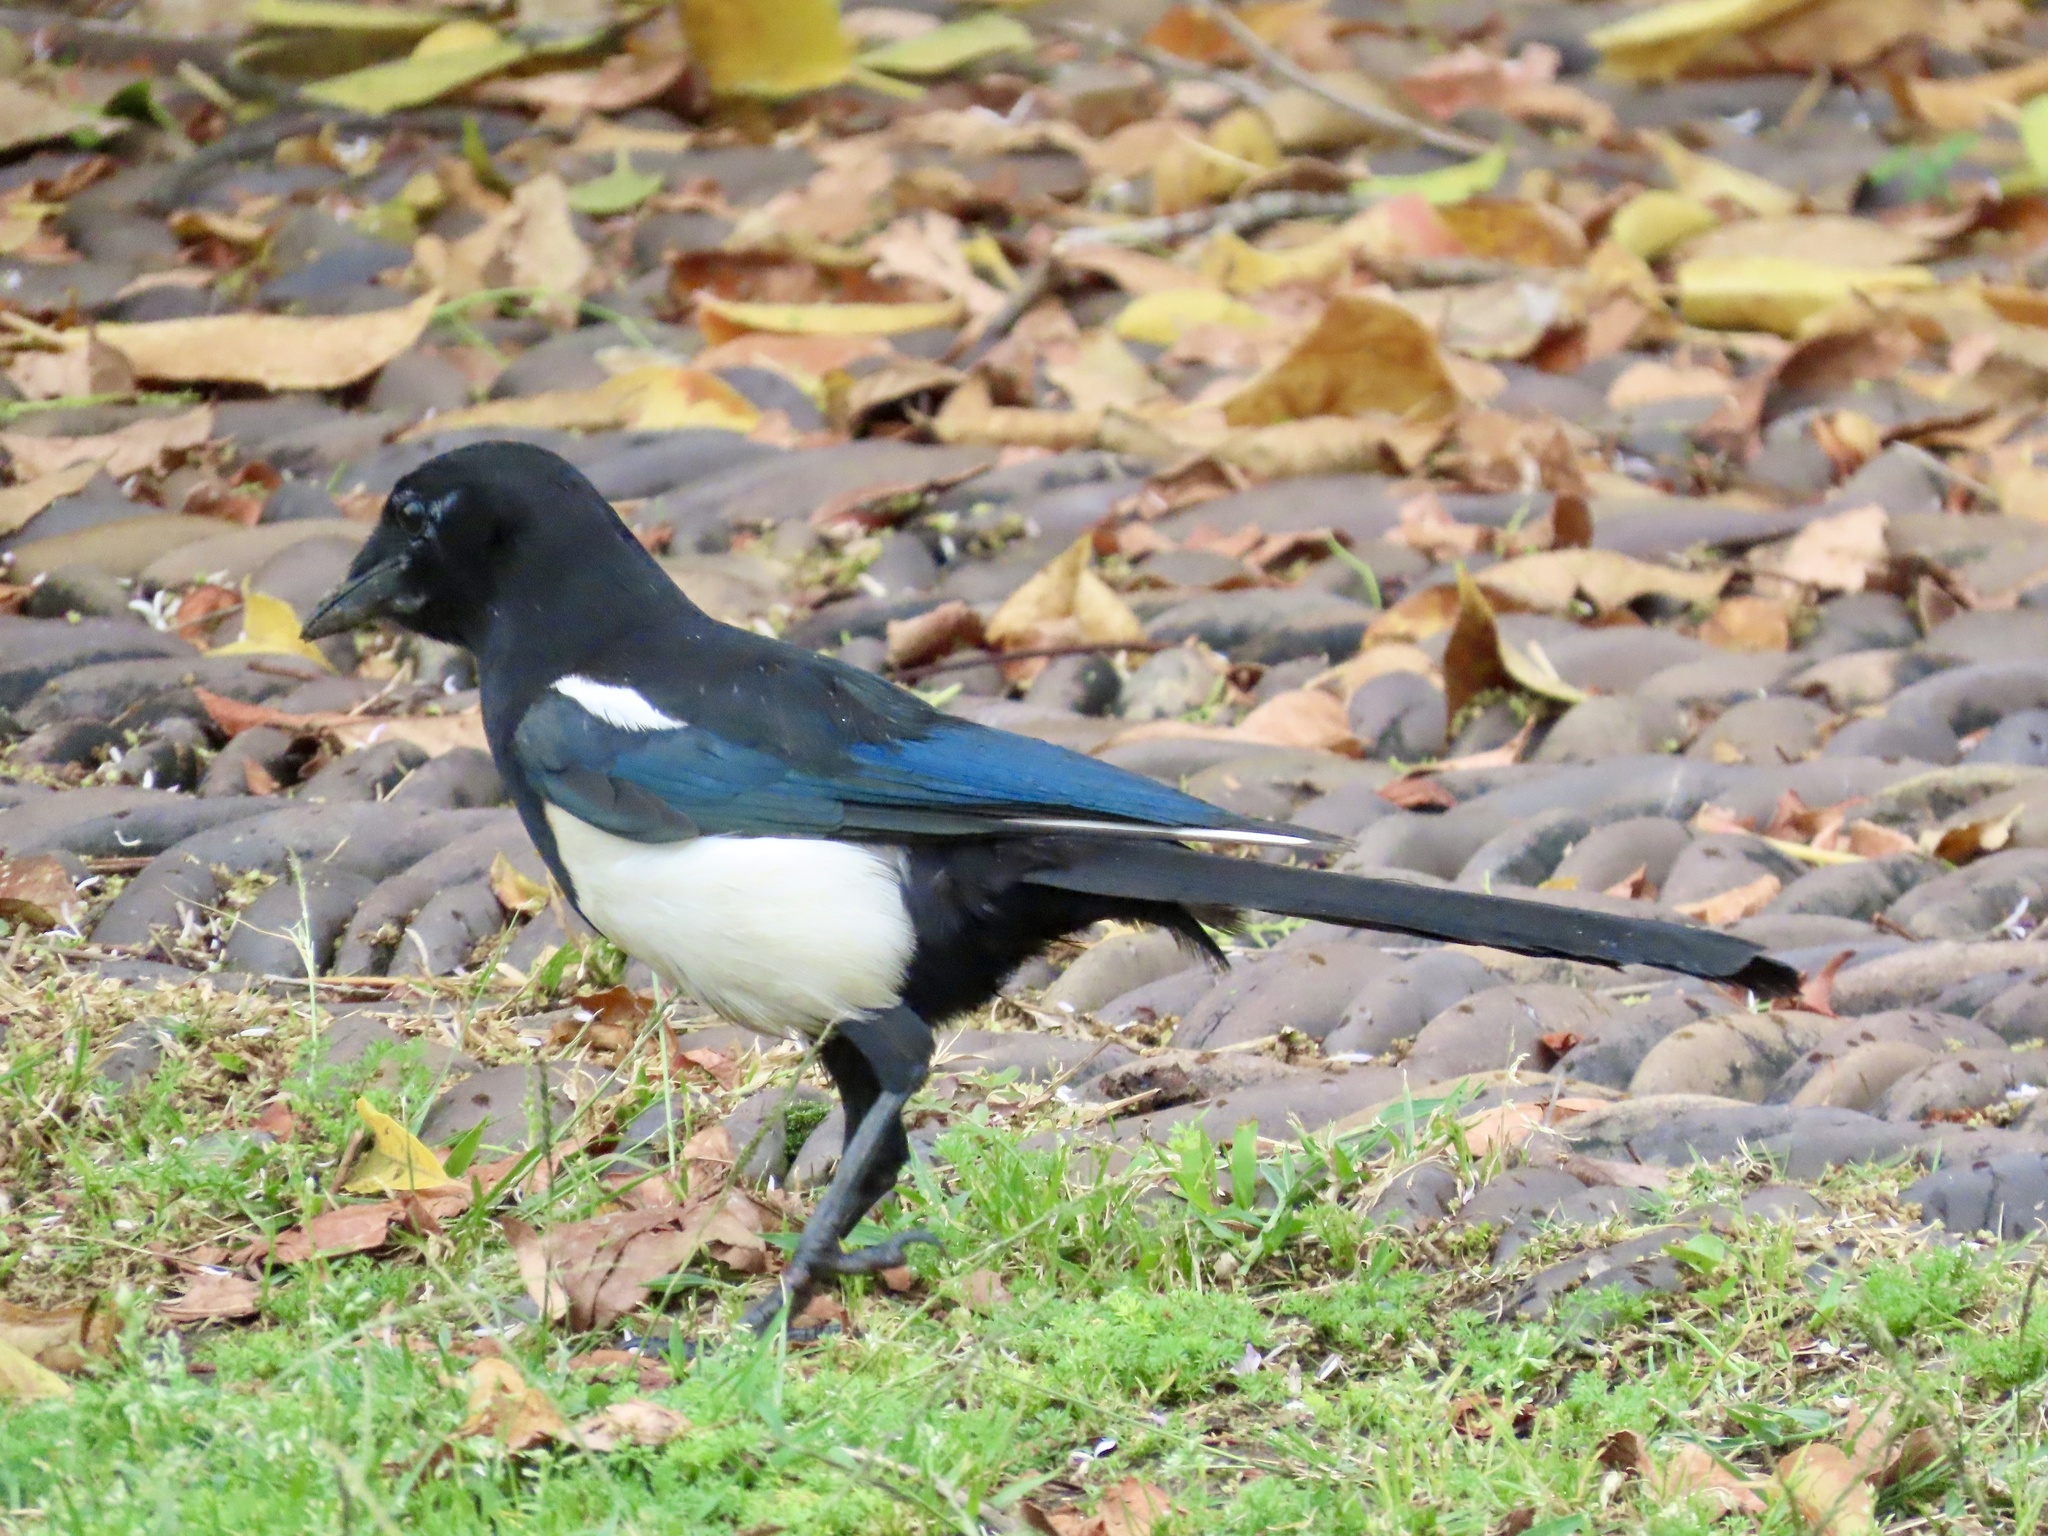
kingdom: Animalia
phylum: Chordata
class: Aves
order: Passeriformes
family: Corvidae
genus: Pica
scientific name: Pica serica
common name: Oriental magpie
